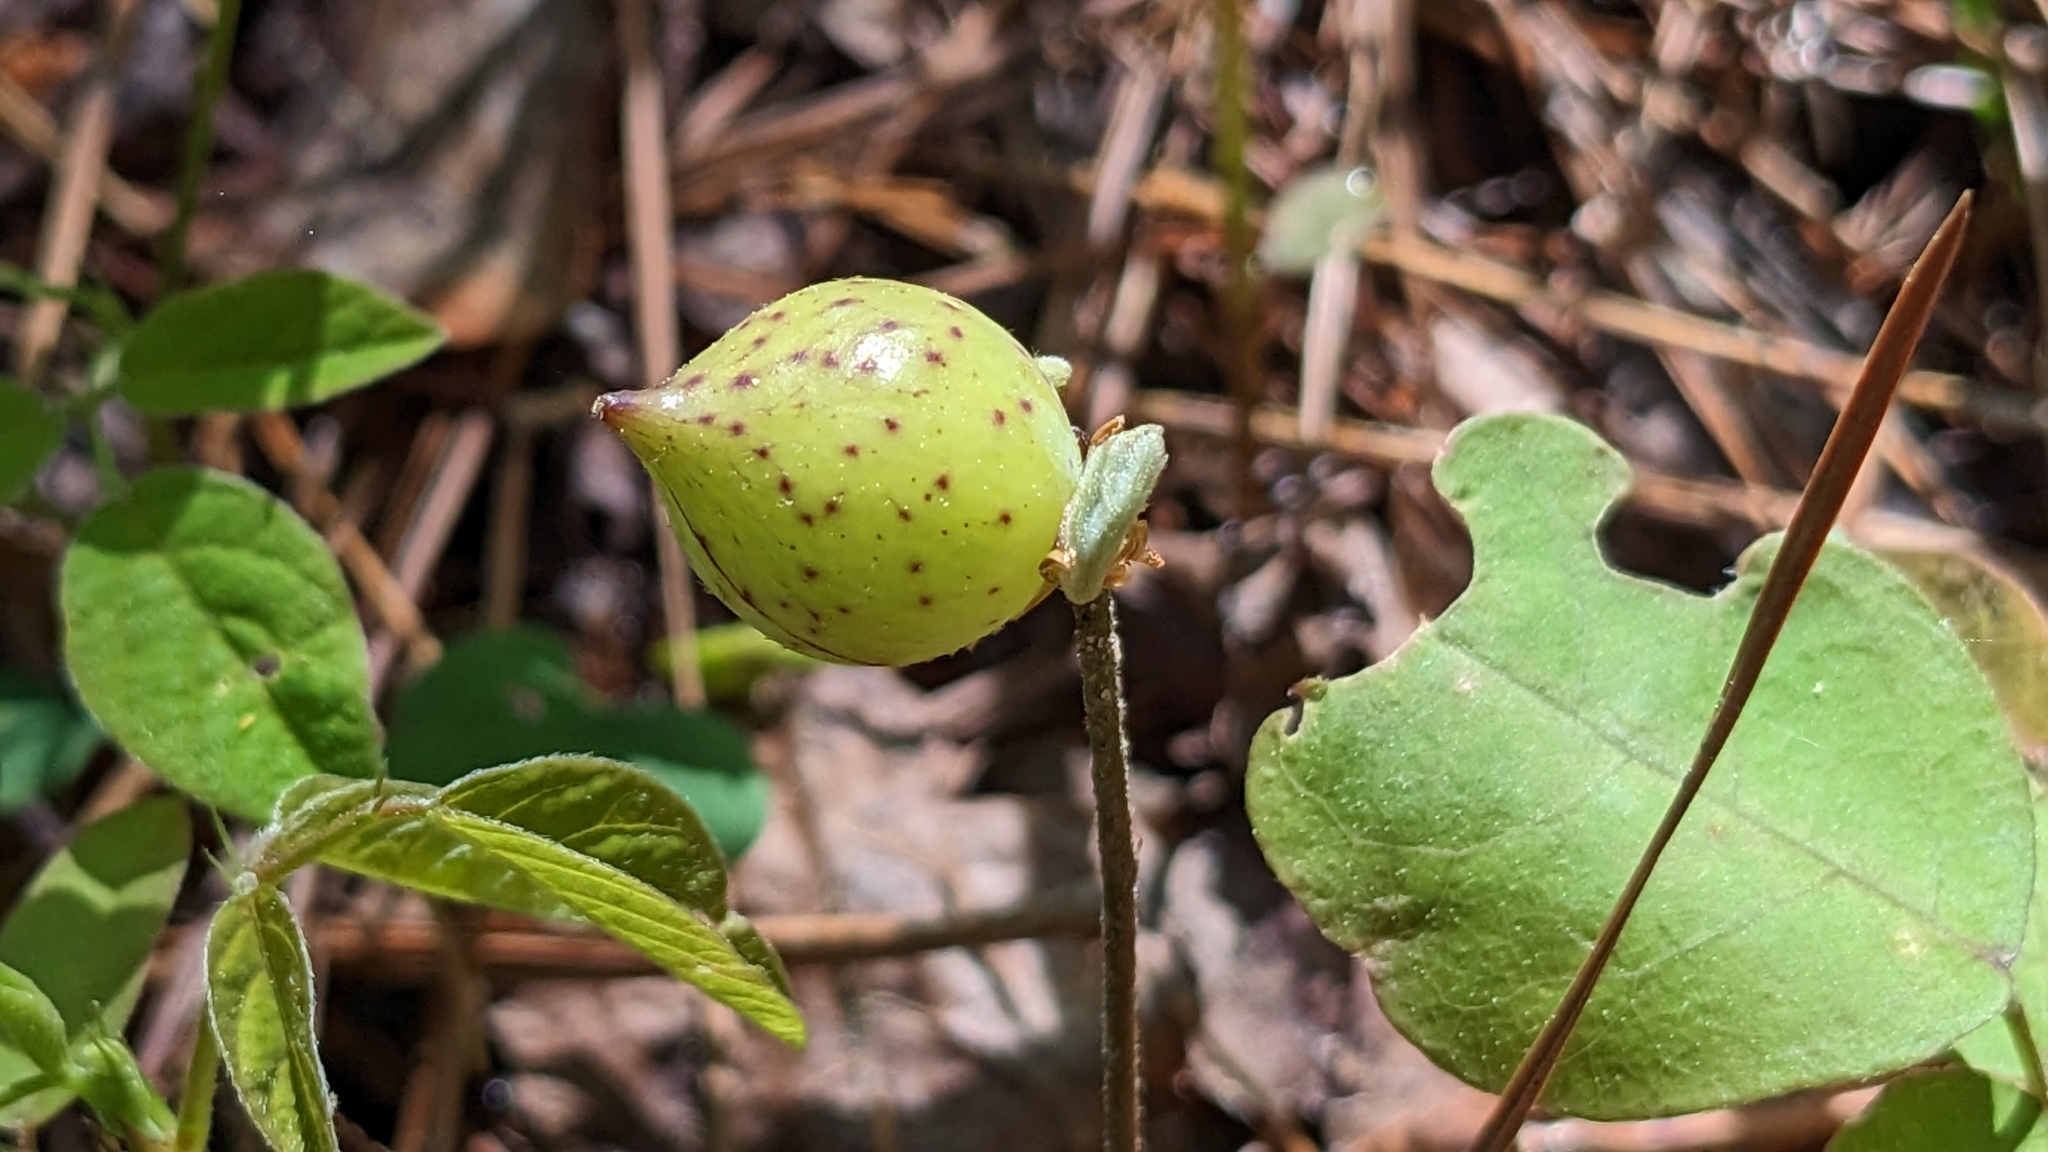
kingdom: Animalia
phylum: Arthropoda
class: Insecta
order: Hymenoptera
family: Cynipidae
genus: Amphibolips
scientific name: Amphibolips
